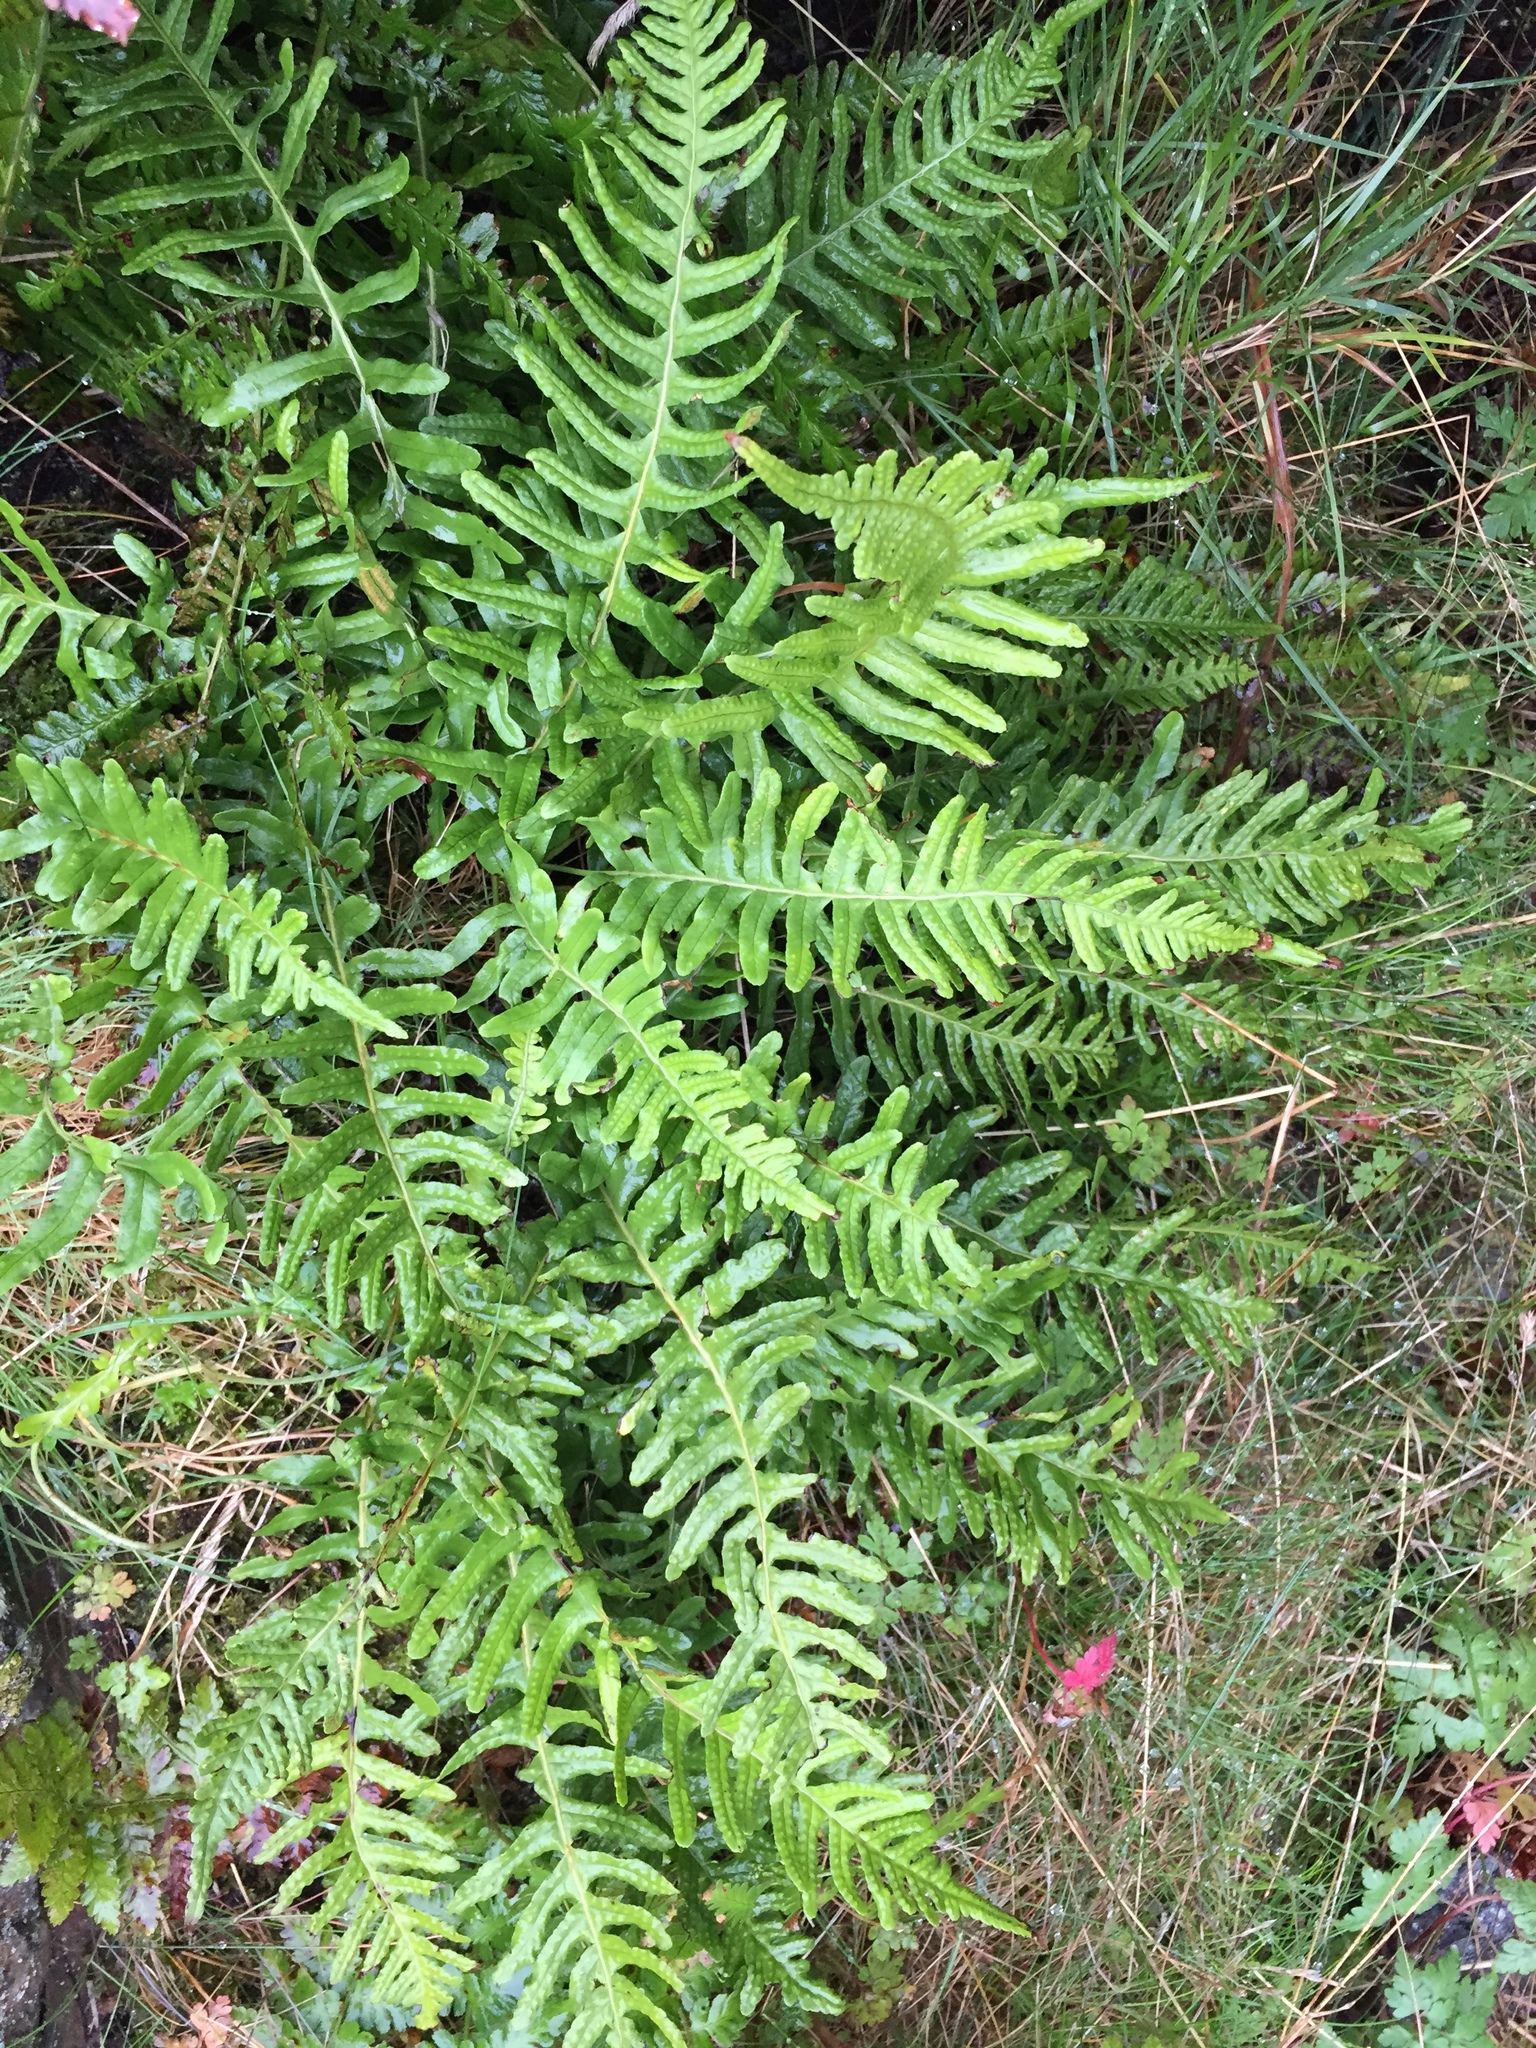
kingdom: Plantae
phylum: Tracheophyta
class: Polypodiopsida
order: Polypodiales
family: Polypodiaceae
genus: Polypodium
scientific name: Polypodium vulgare
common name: Common polypody
